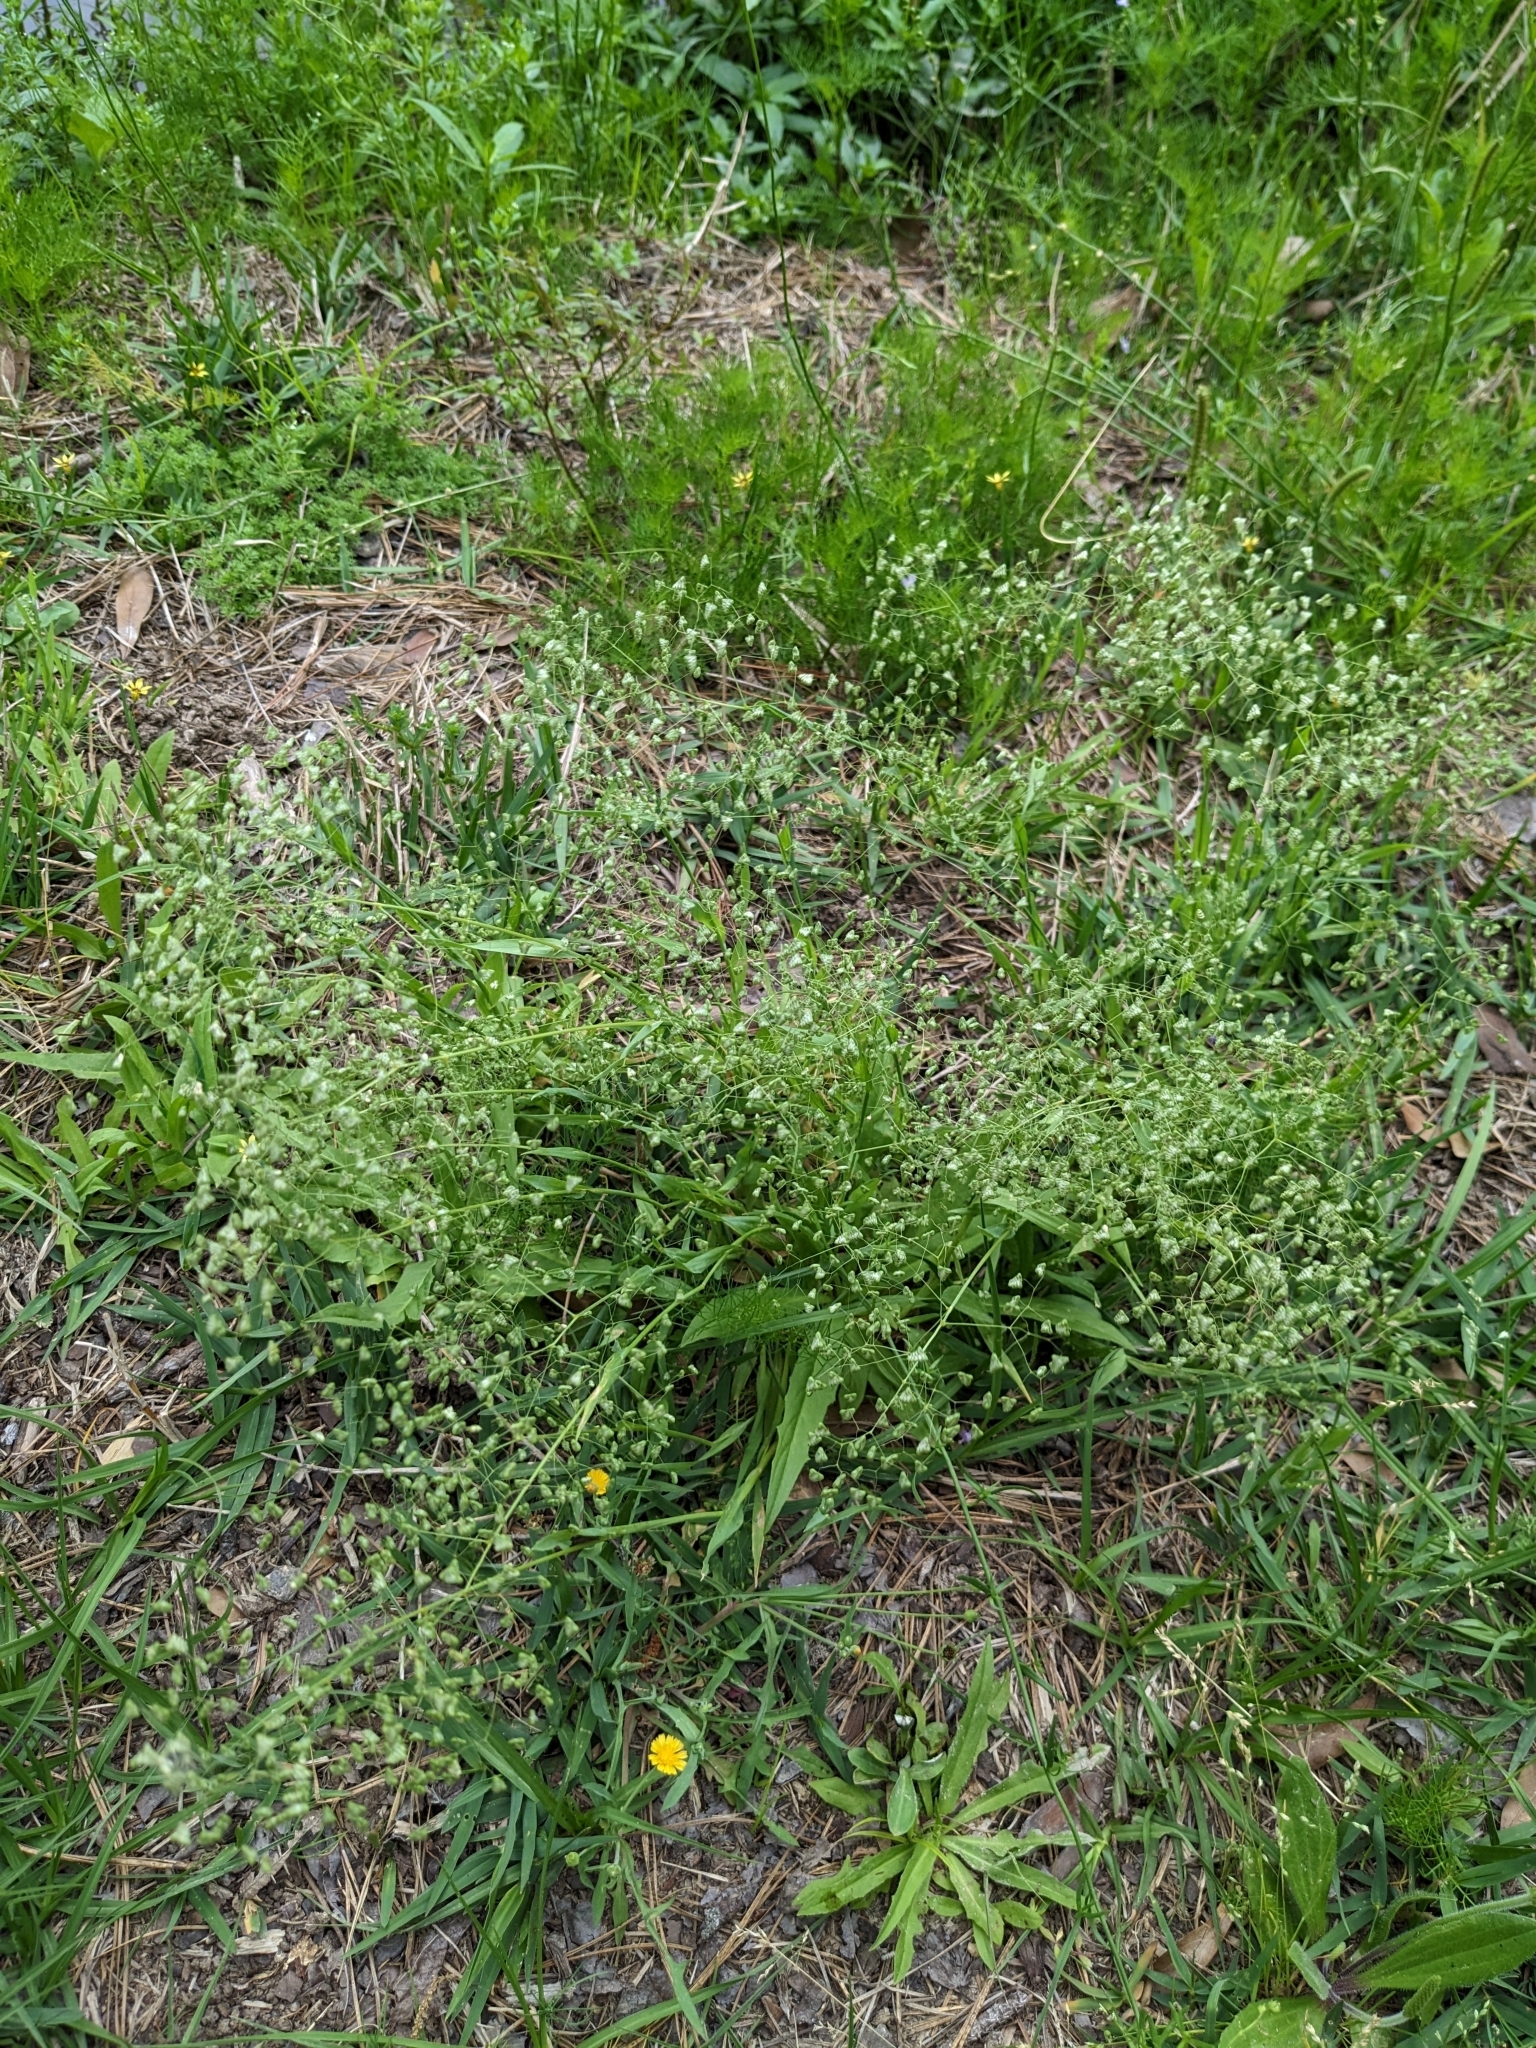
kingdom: Plantae
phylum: Tracheophyta
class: Liliopsida
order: Poales
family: Poaceae
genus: Briza
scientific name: Briza minor
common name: Lesser quaking-grass
